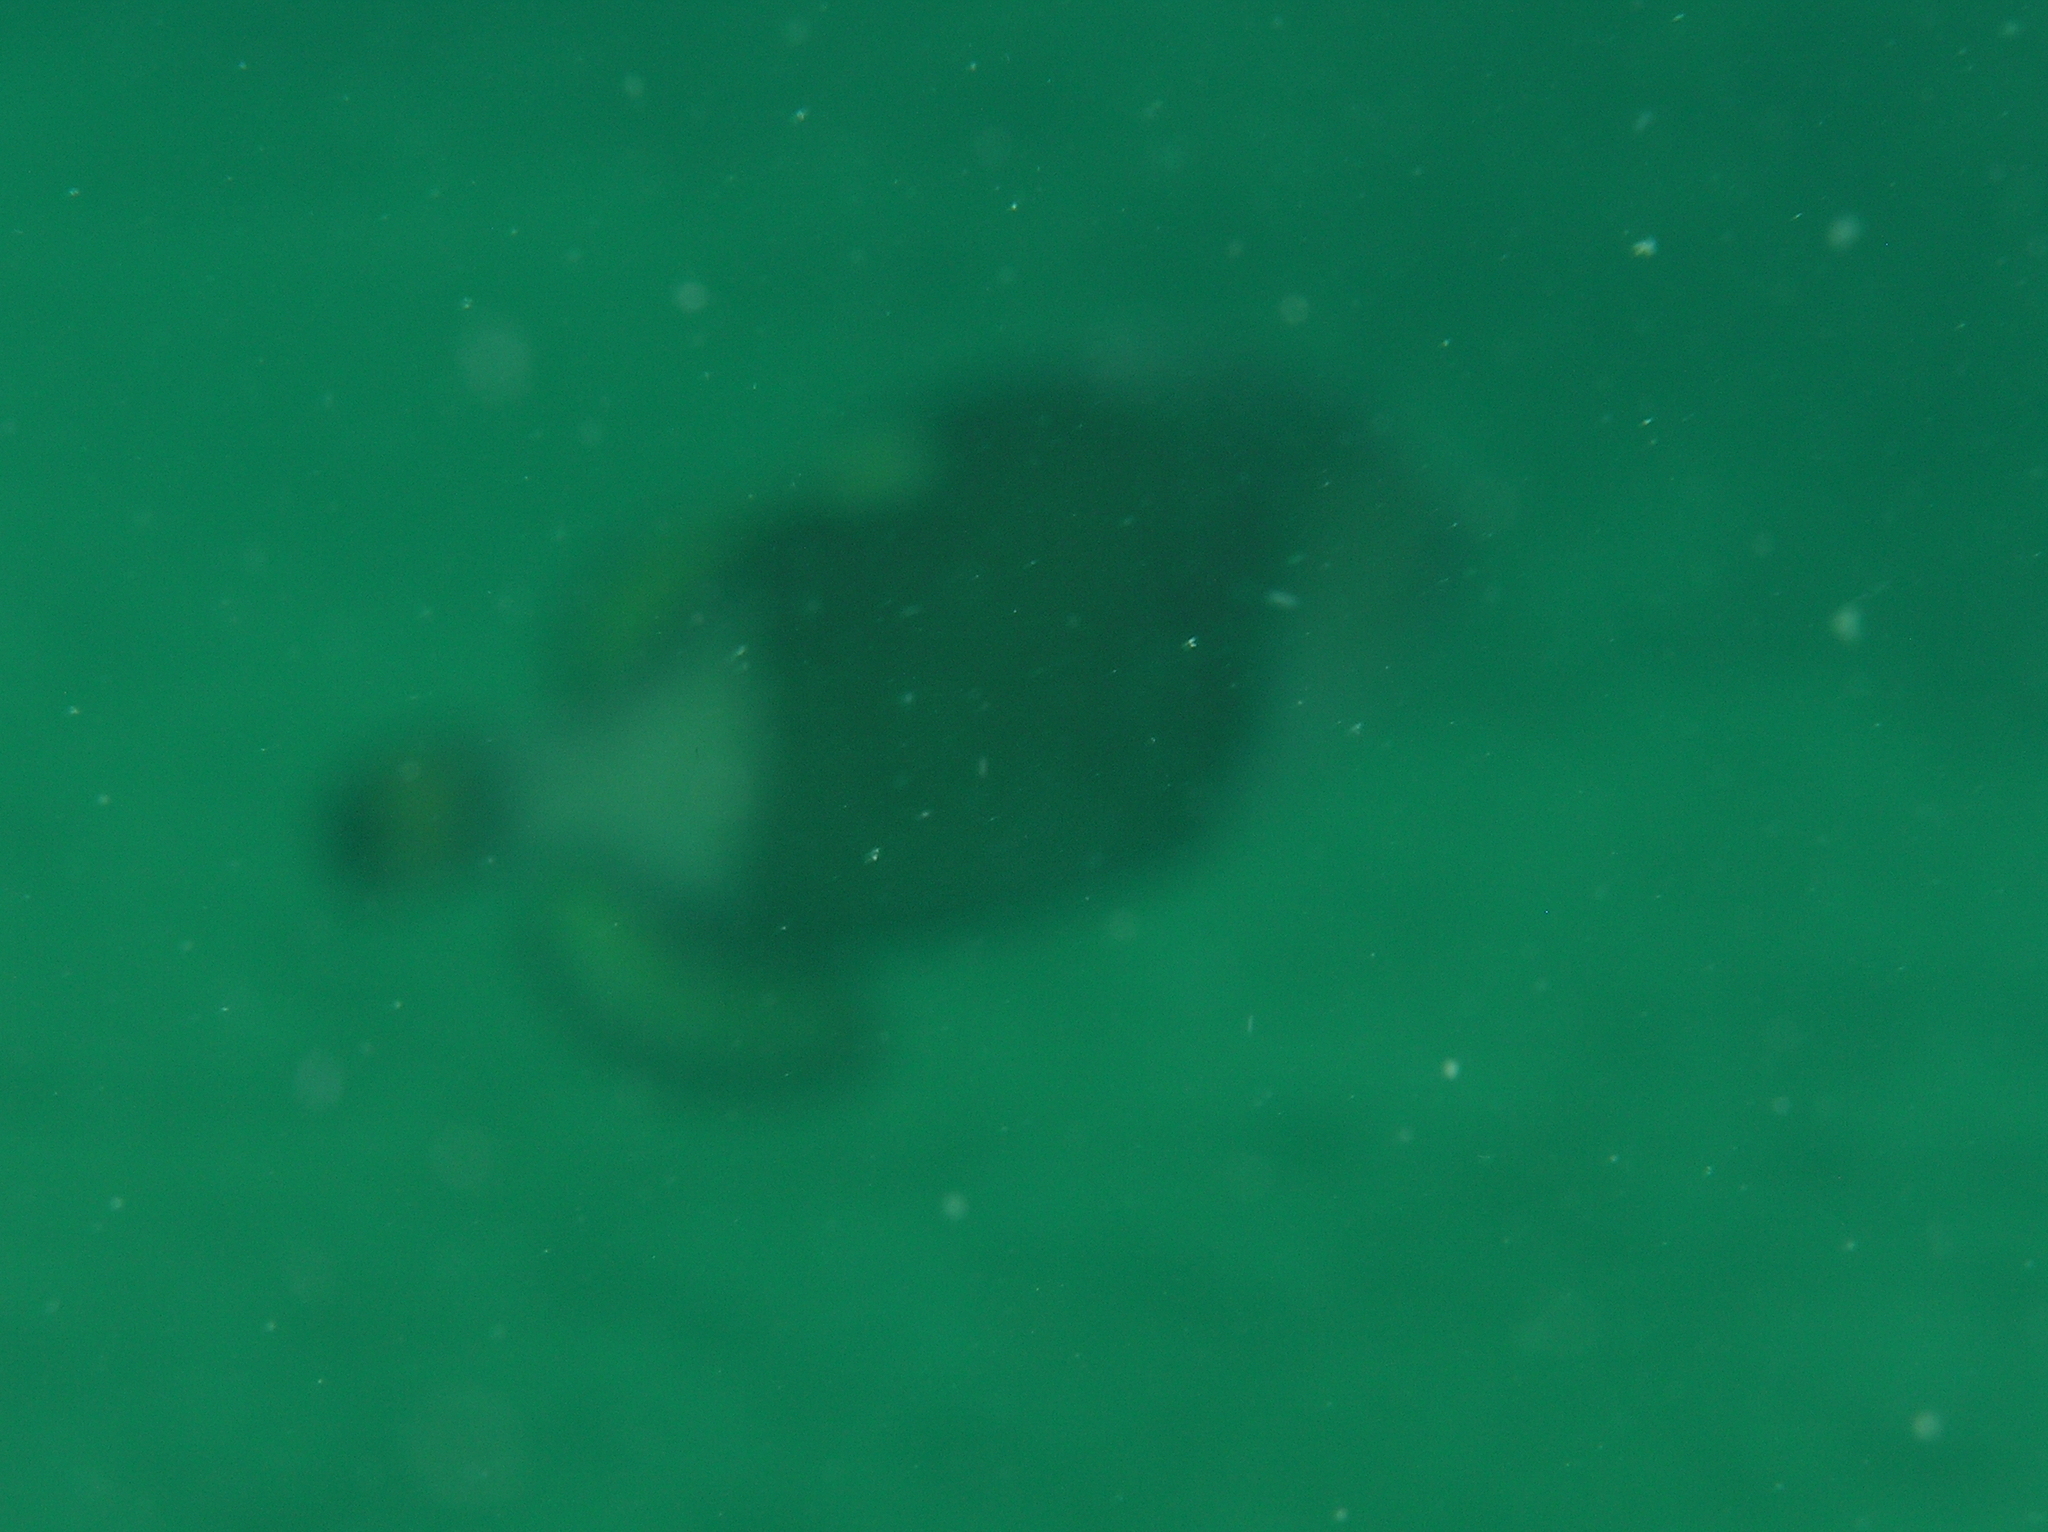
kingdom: Animalia
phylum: Chordata
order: Tetraodontiformes
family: Balistidae
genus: Balistoides
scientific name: Balistoides viridescens
